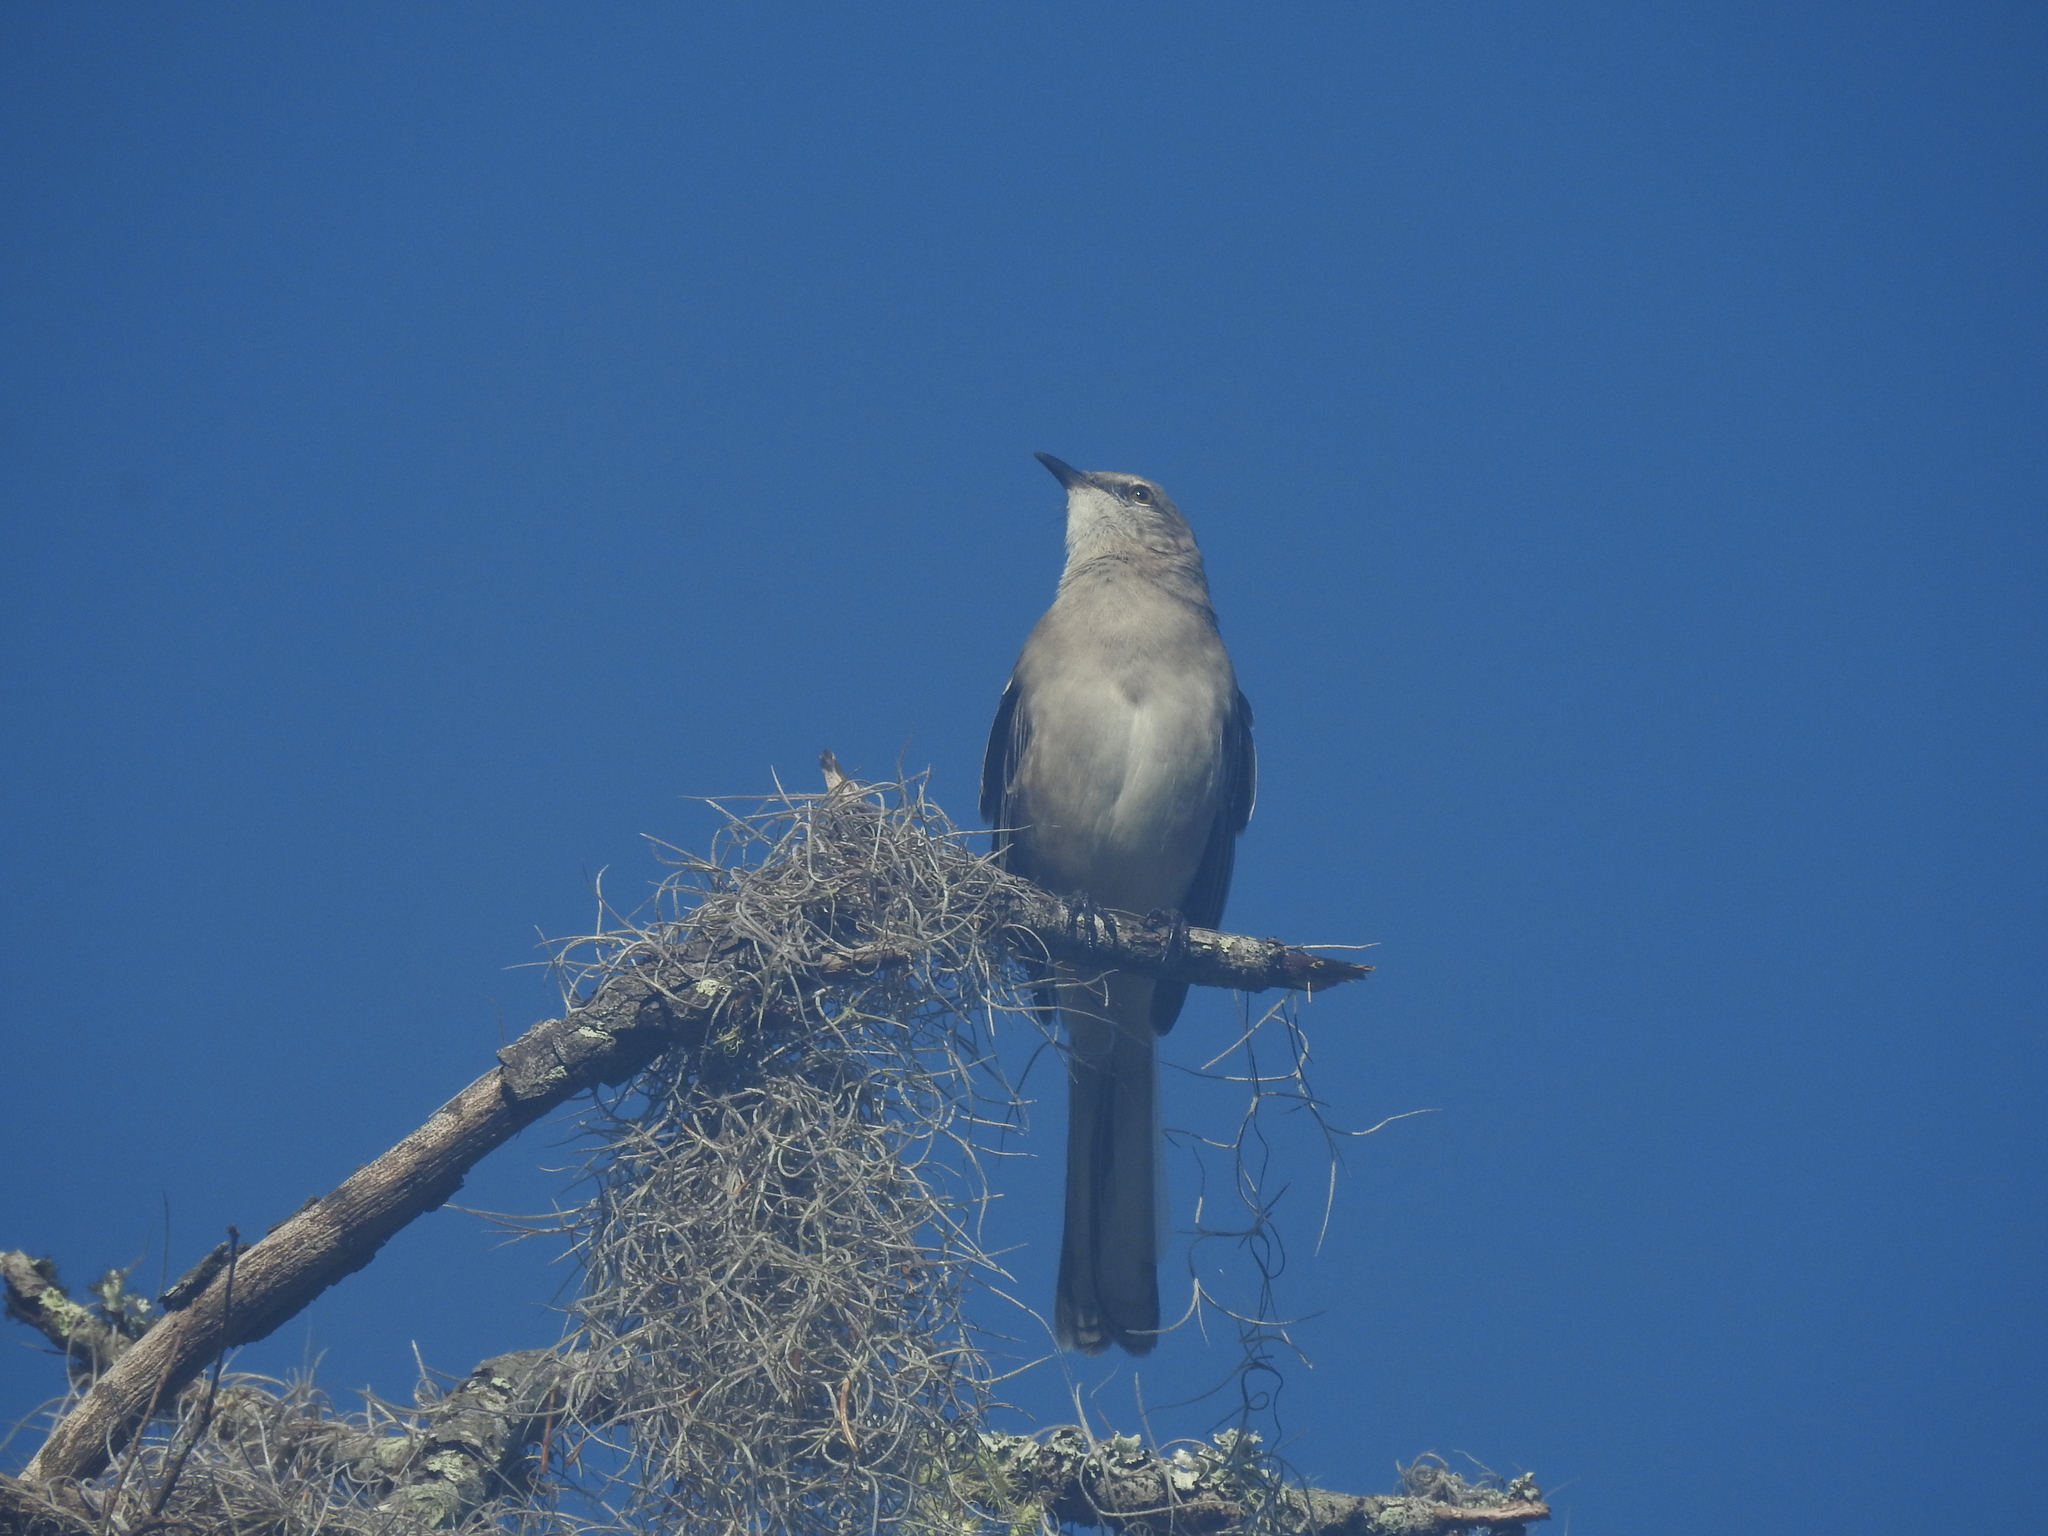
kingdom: Animalia
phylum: Chordata
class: Aves
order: Passeriformes
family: Mimidae
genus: Mimus
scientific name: Mimus polyglottos
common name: Northern mockingbird
